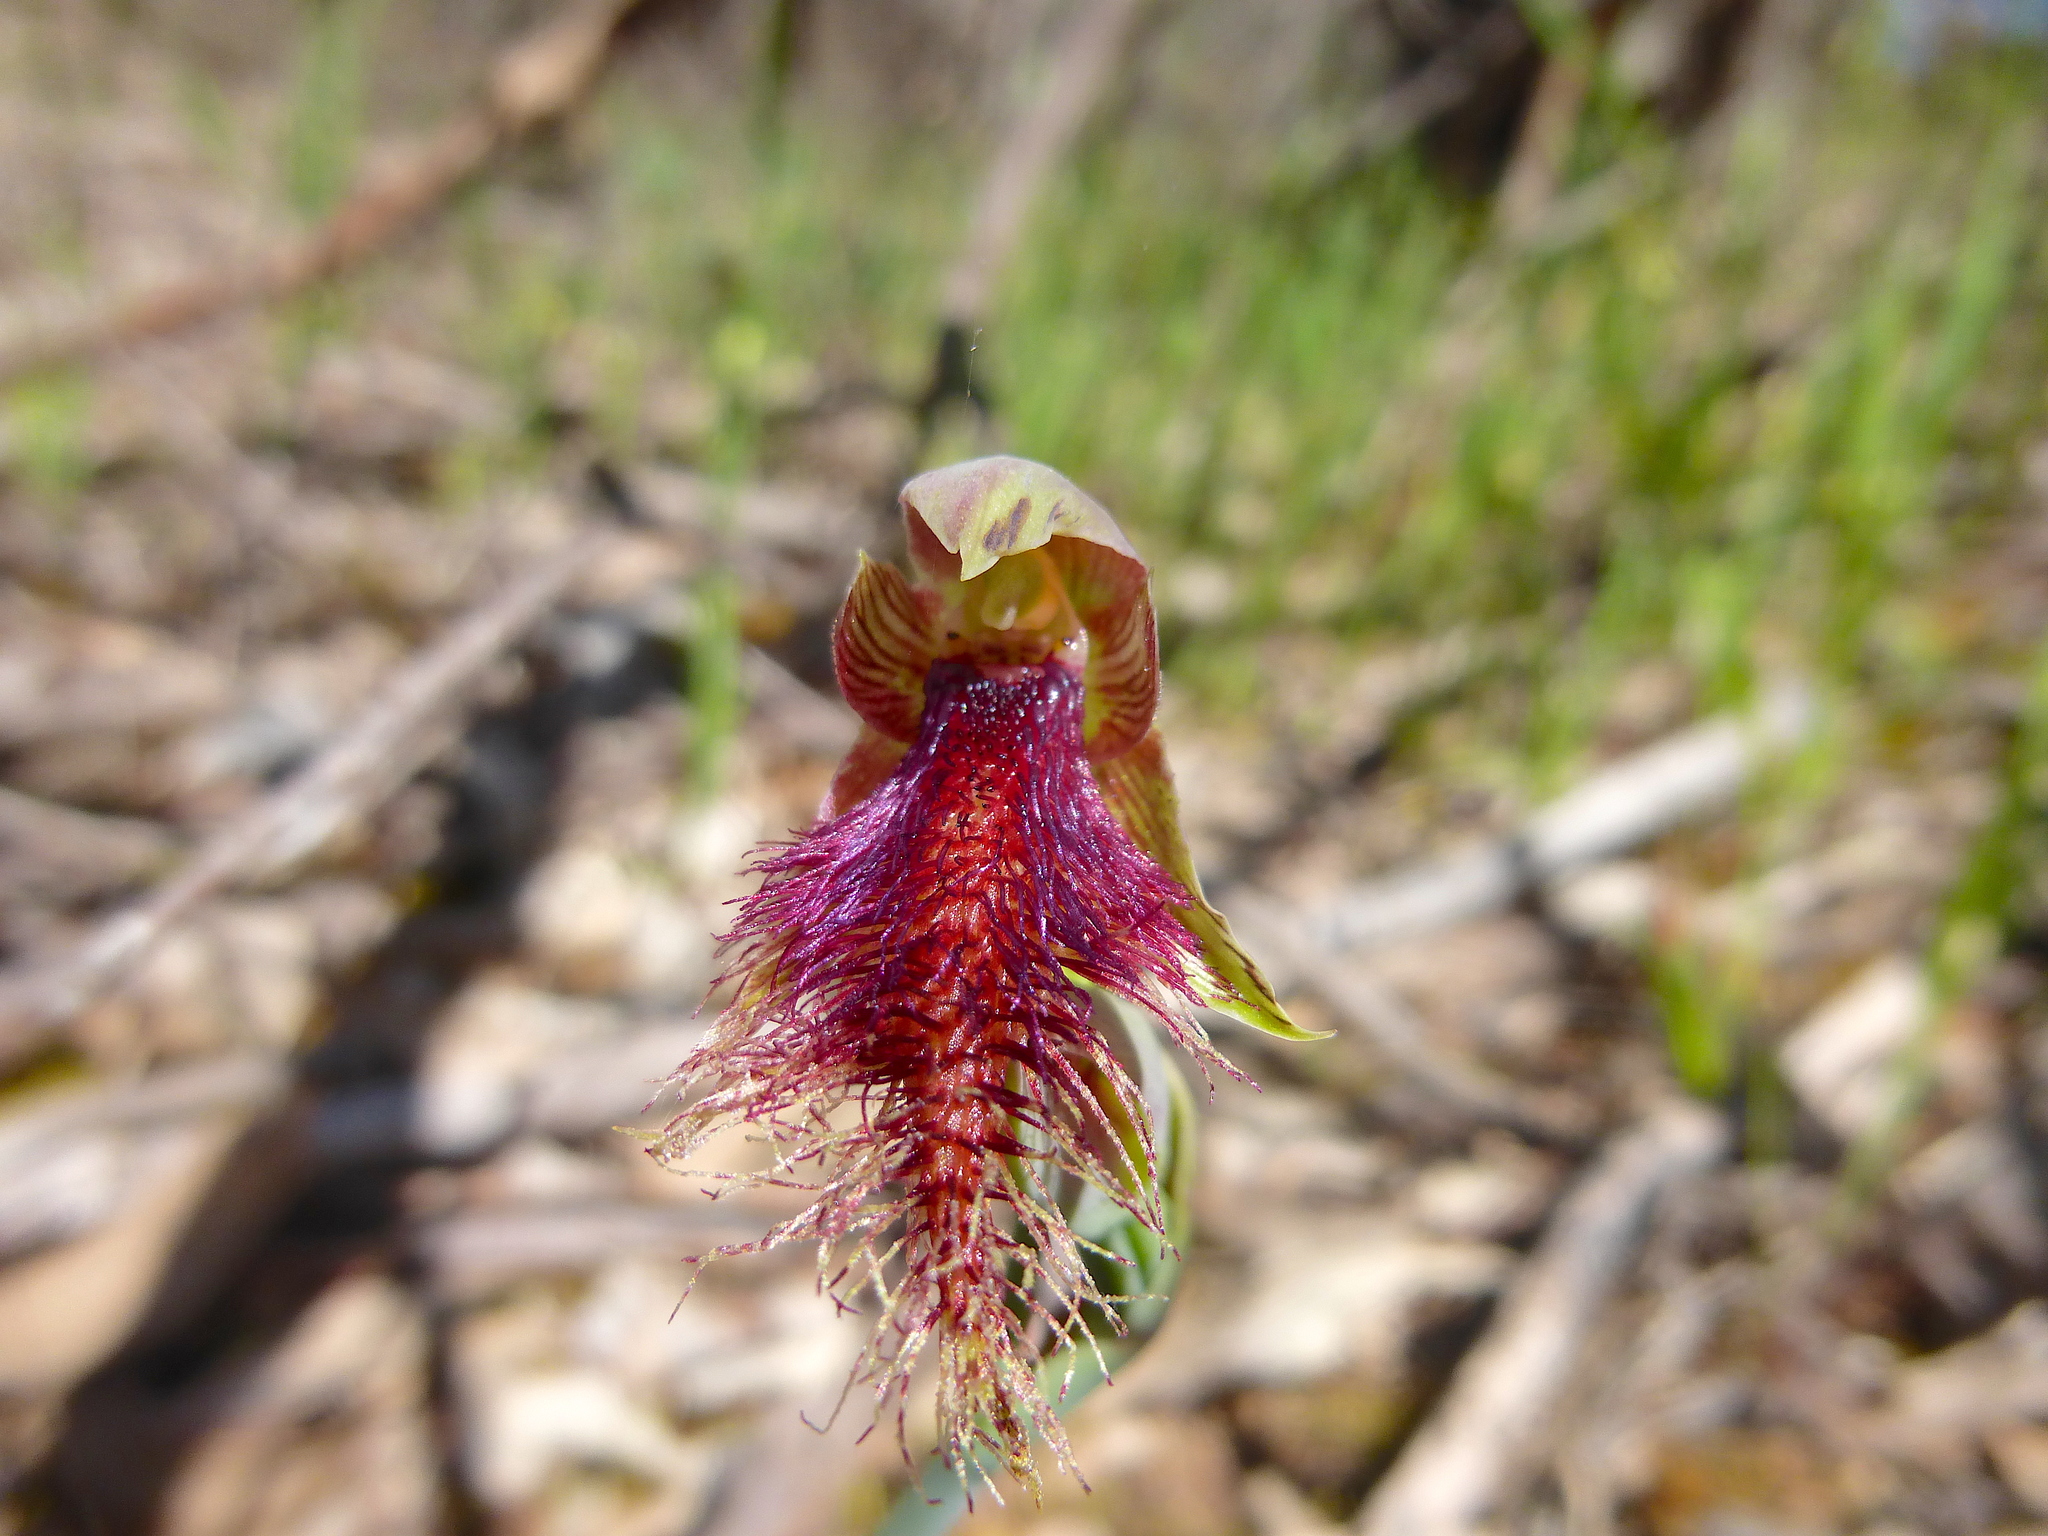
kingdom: Plantae
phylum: Tracheophyta
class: Liliopsida
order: Asparagales
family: Orchidaceae
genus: Calochilus
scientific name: Calochilus robertsonii
